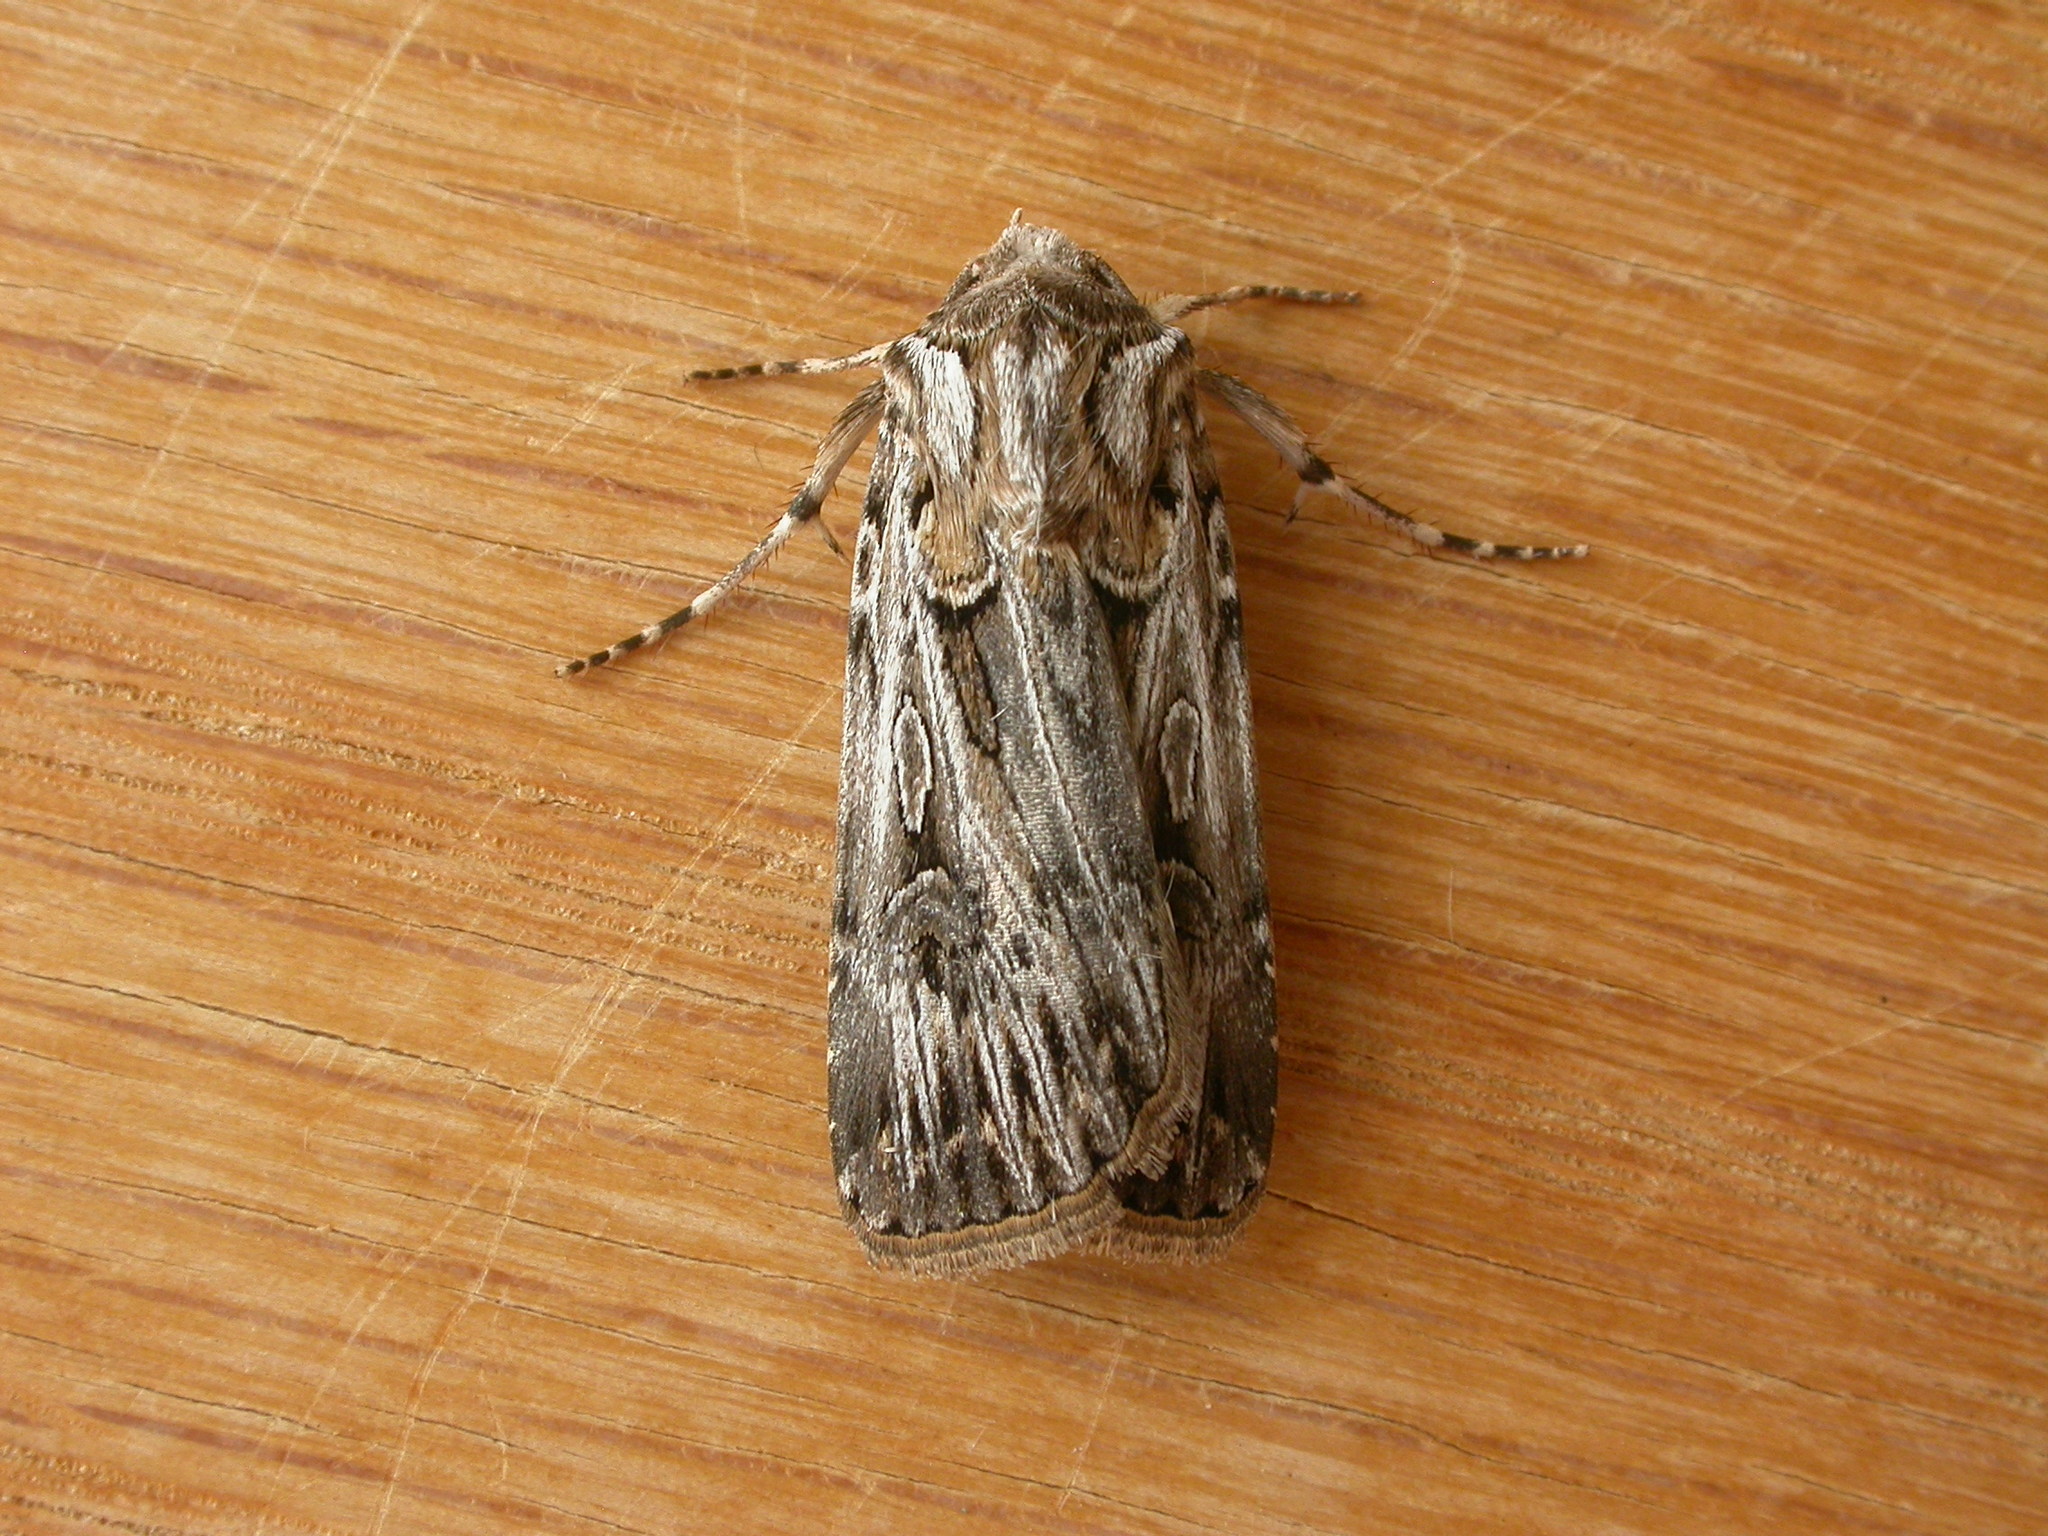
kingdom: Animalia
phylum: Arthropoda
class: Insecta
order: Lepidoptera
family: Noctuidae
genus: Agrotis
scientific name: Agrotis radians
